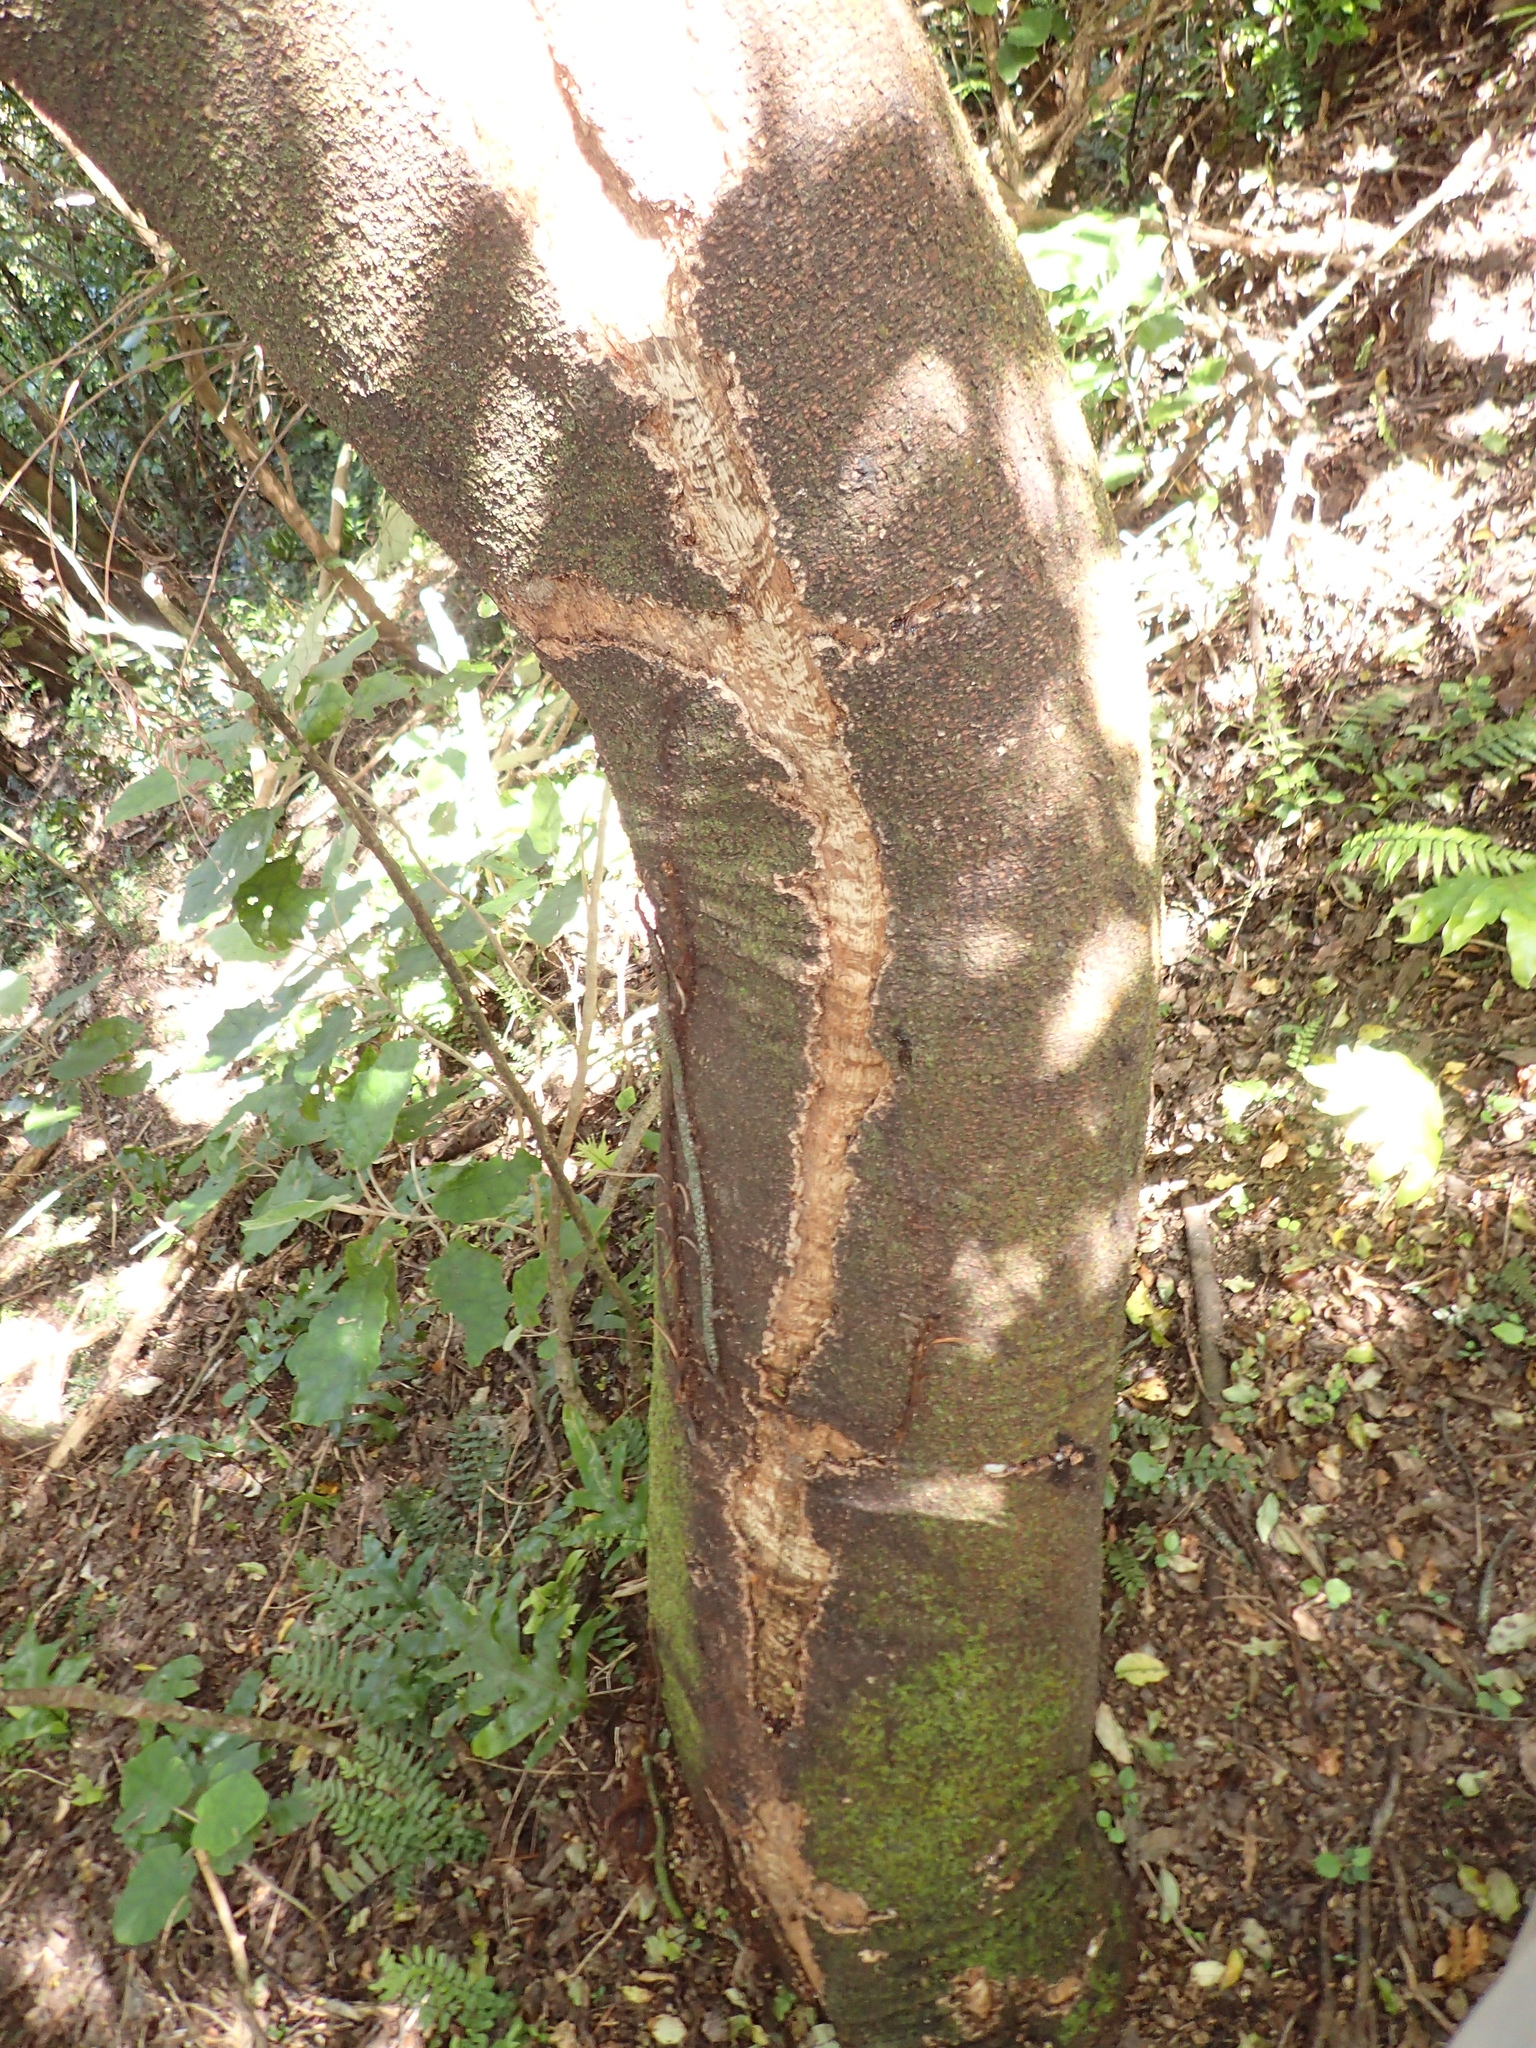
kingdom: Plantae
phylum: Tracheophyta
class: Magnoliopsida
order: Apiales
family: Pittosporaceae
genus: Pittosporum
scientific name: Pittosporum tenuifolium
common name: Kohuhu
